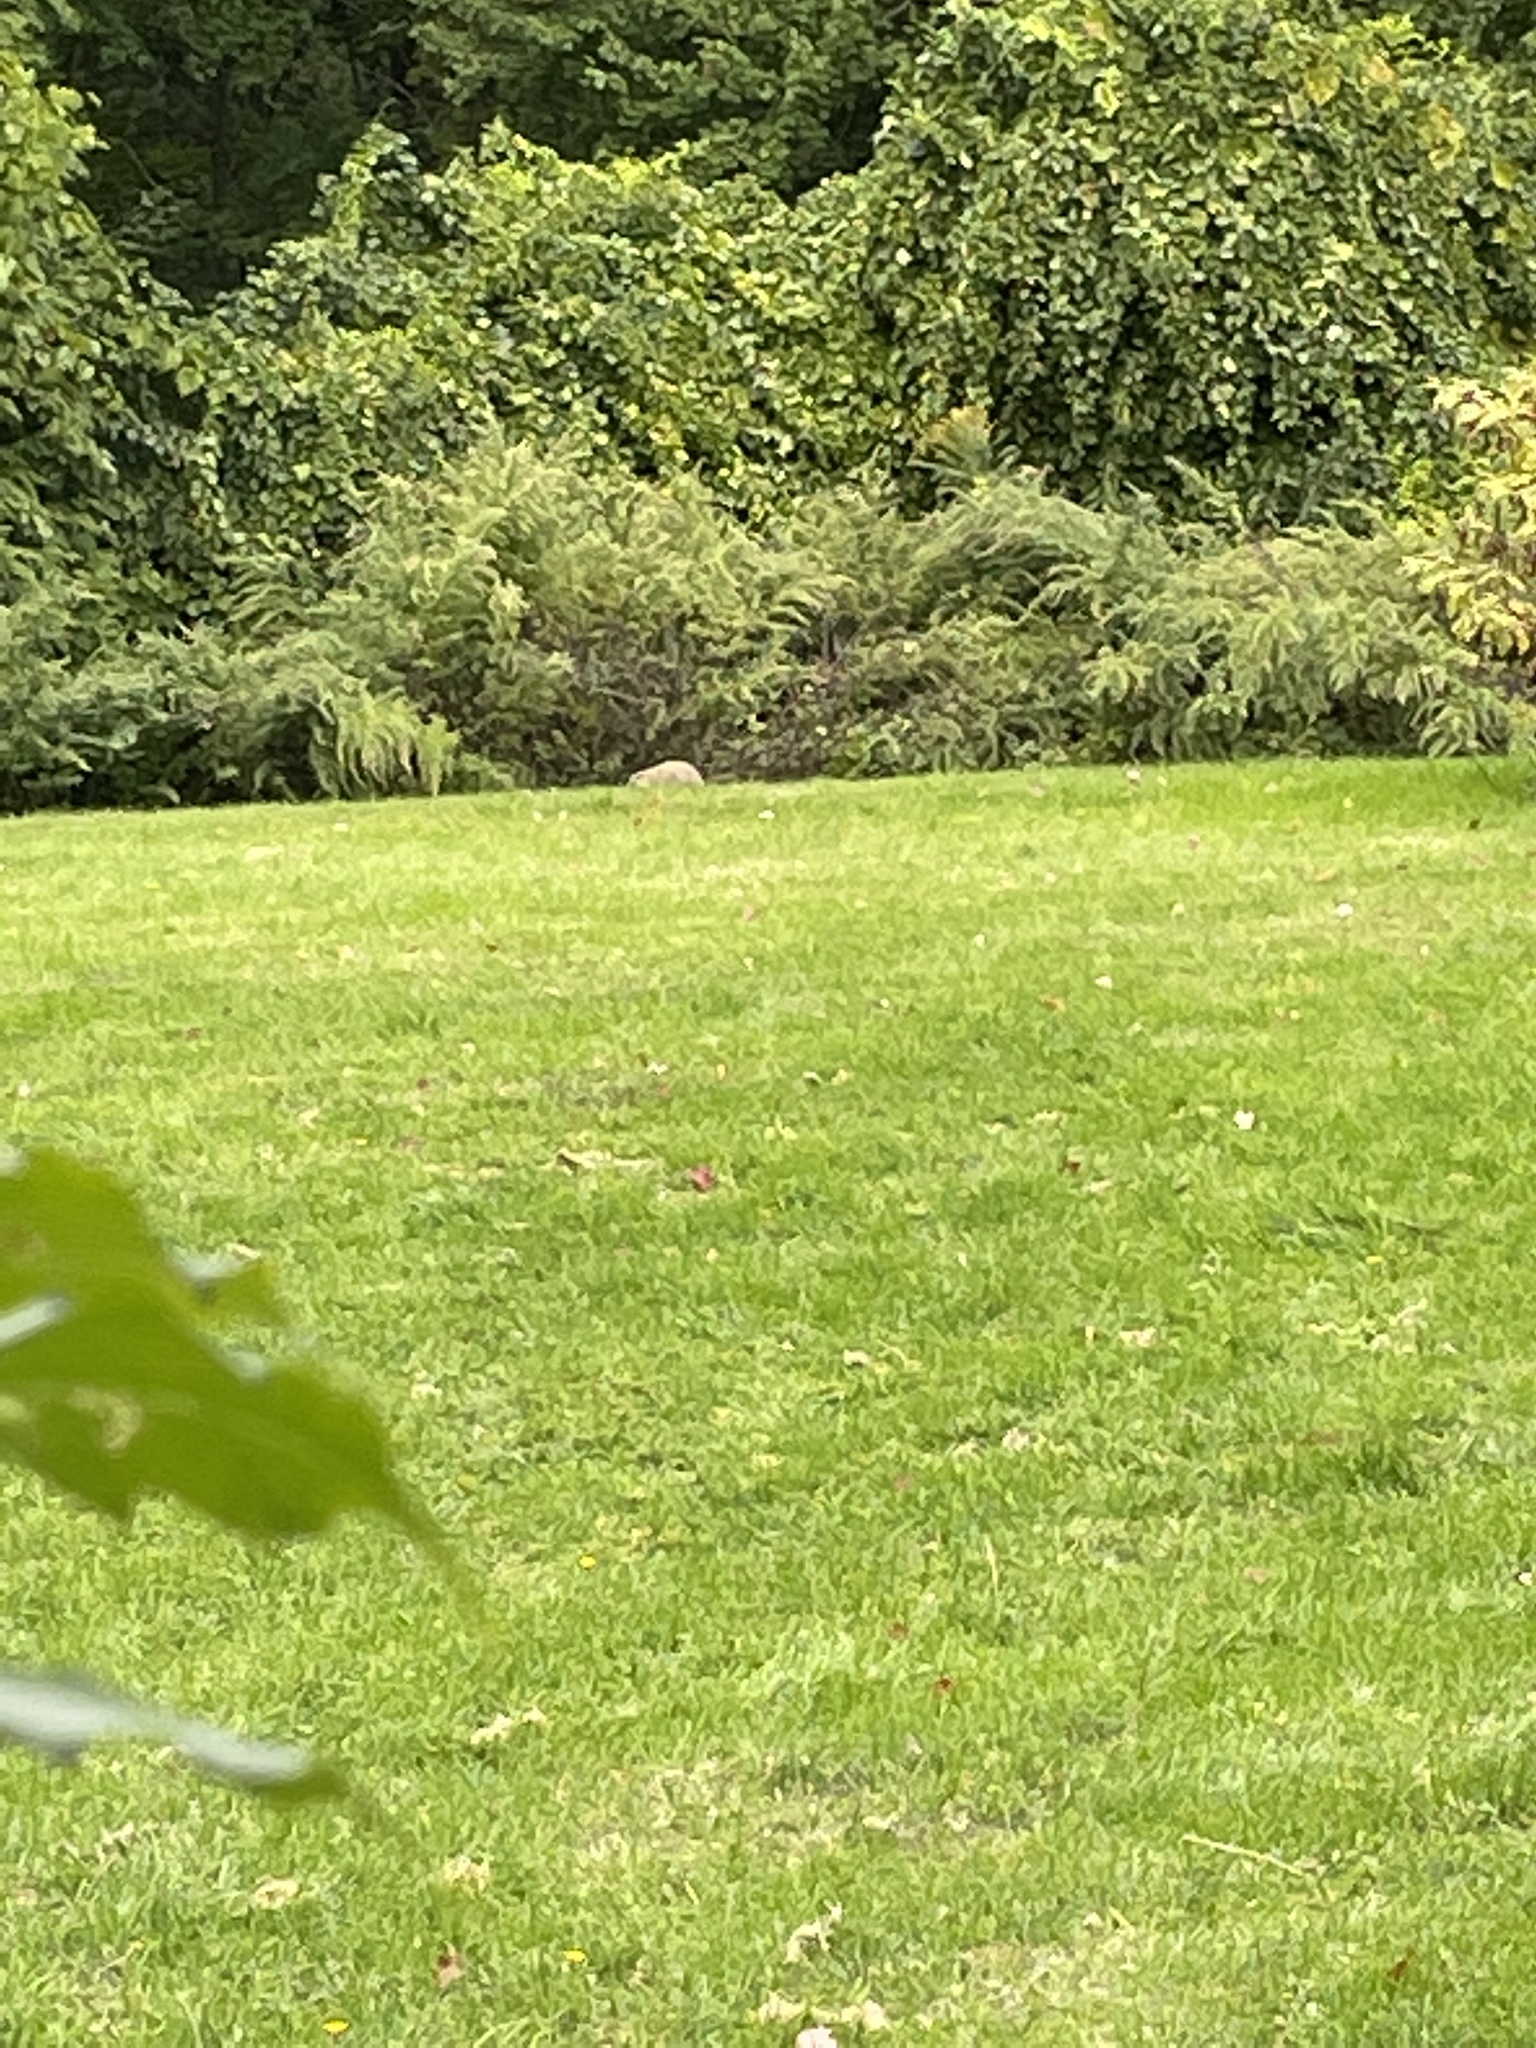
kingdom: Animalia
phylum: Chordata
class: Mammalia
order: Rodentia
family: Sciuridae
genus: Marmota
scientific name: Marmota monax
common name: Groundhog
